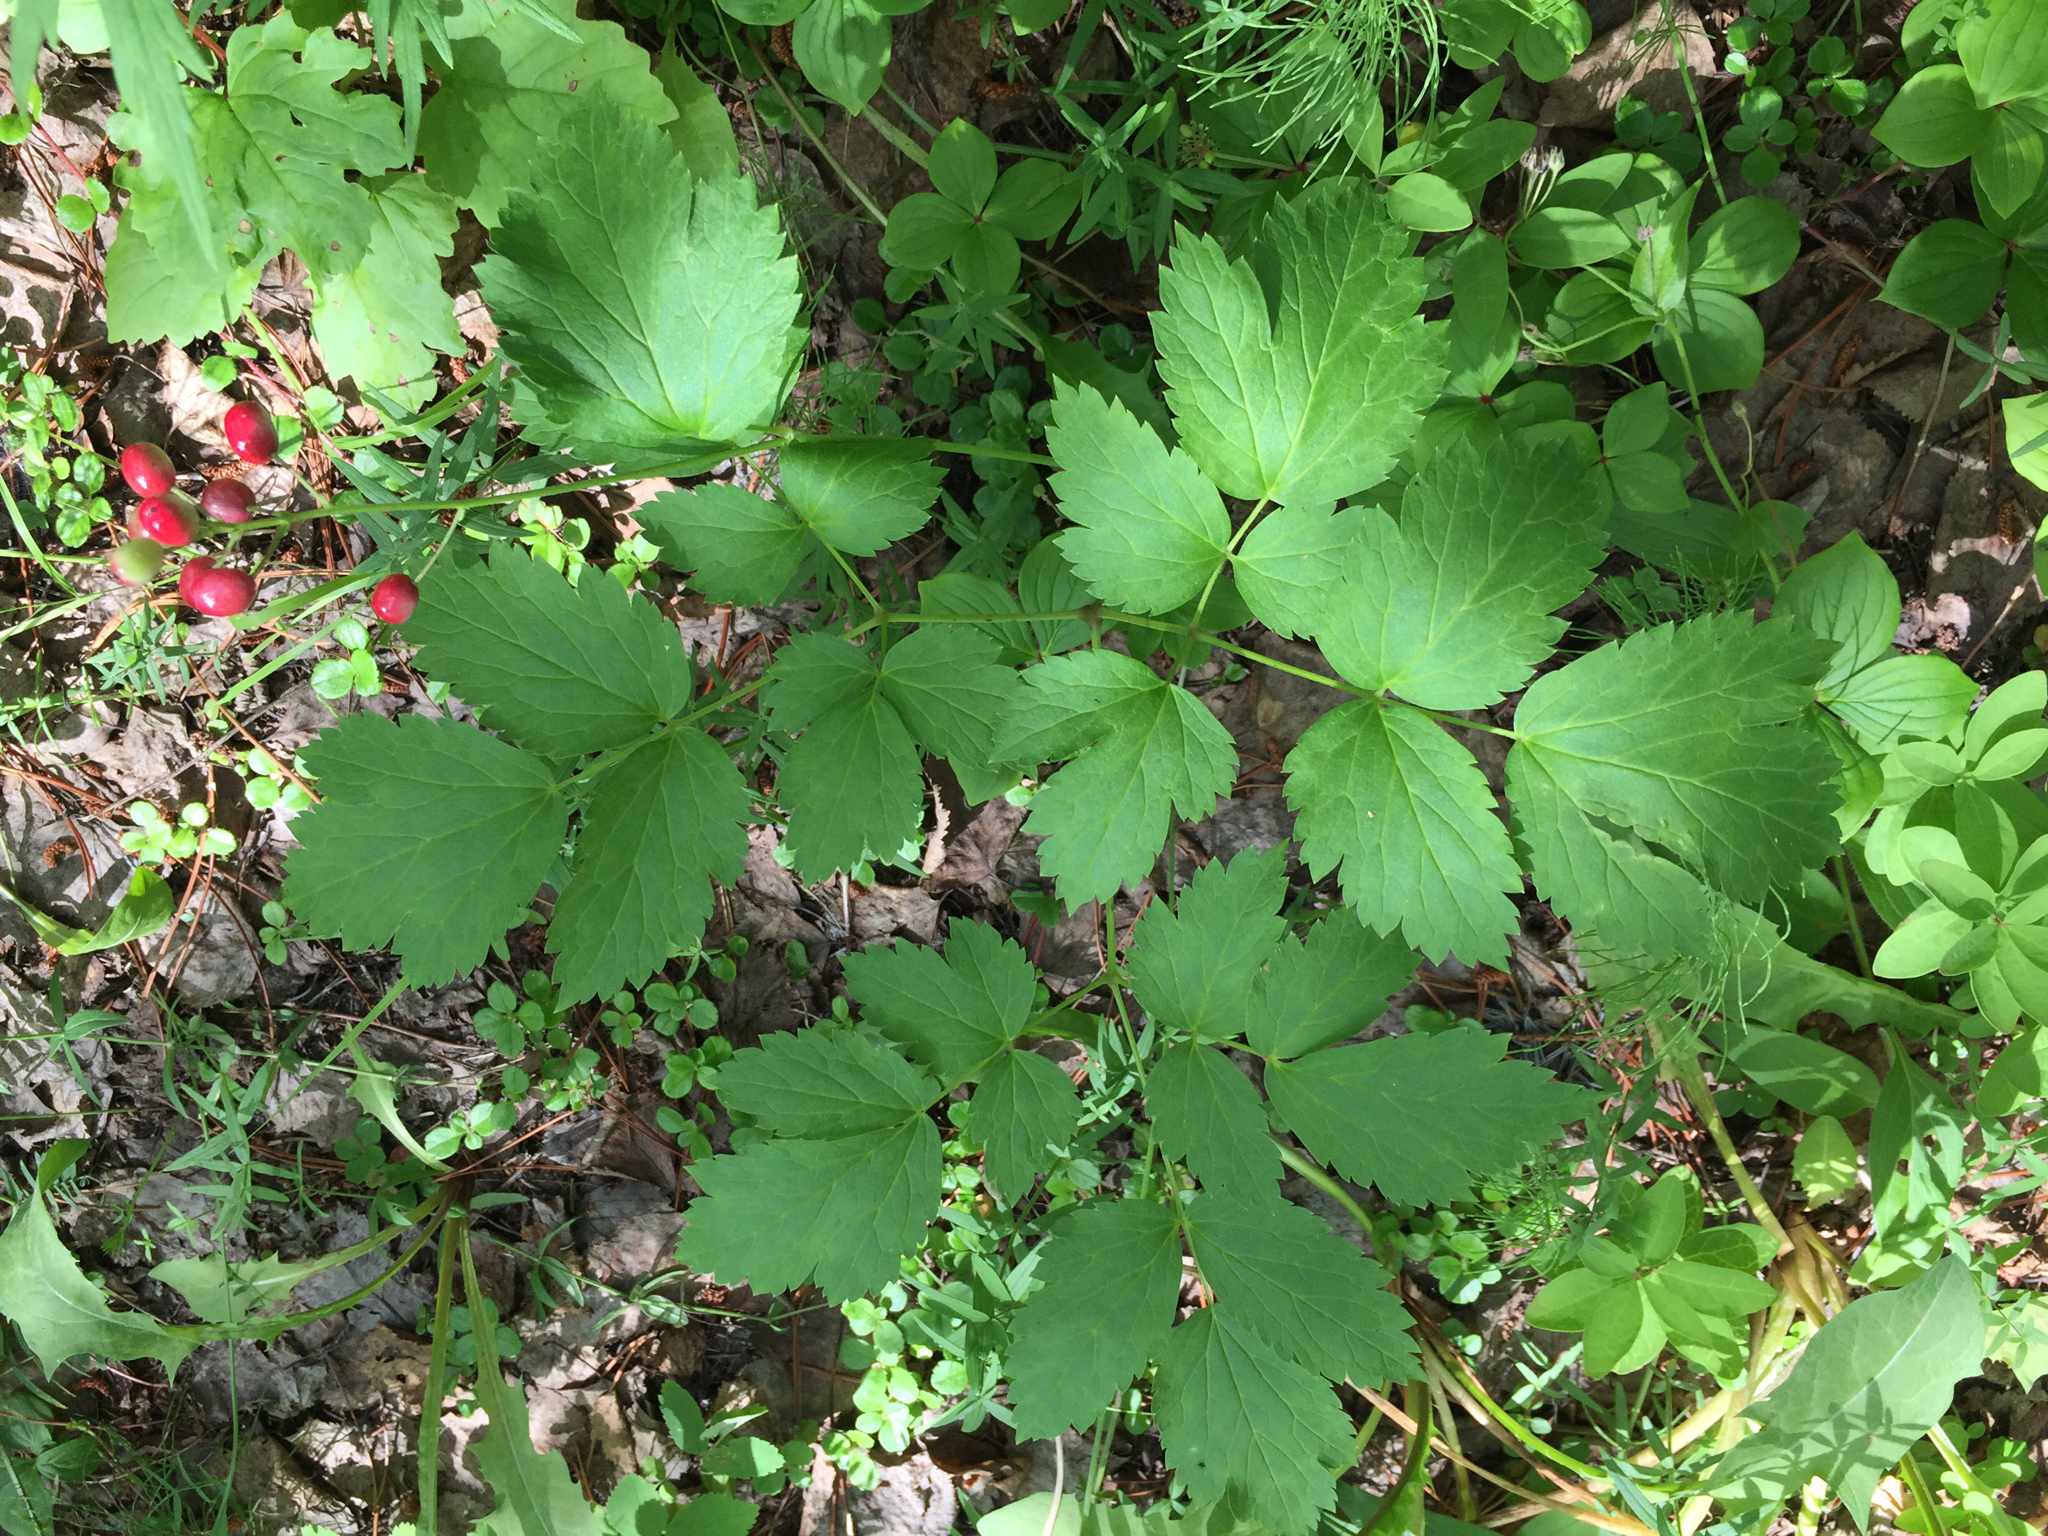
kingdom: Plantae
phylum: Tracheophyta
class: Magnoliopsida
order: Ranunculales
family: Ranunculaceae
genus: Actaea
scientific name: Actaea rubra
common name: Red baneberry
